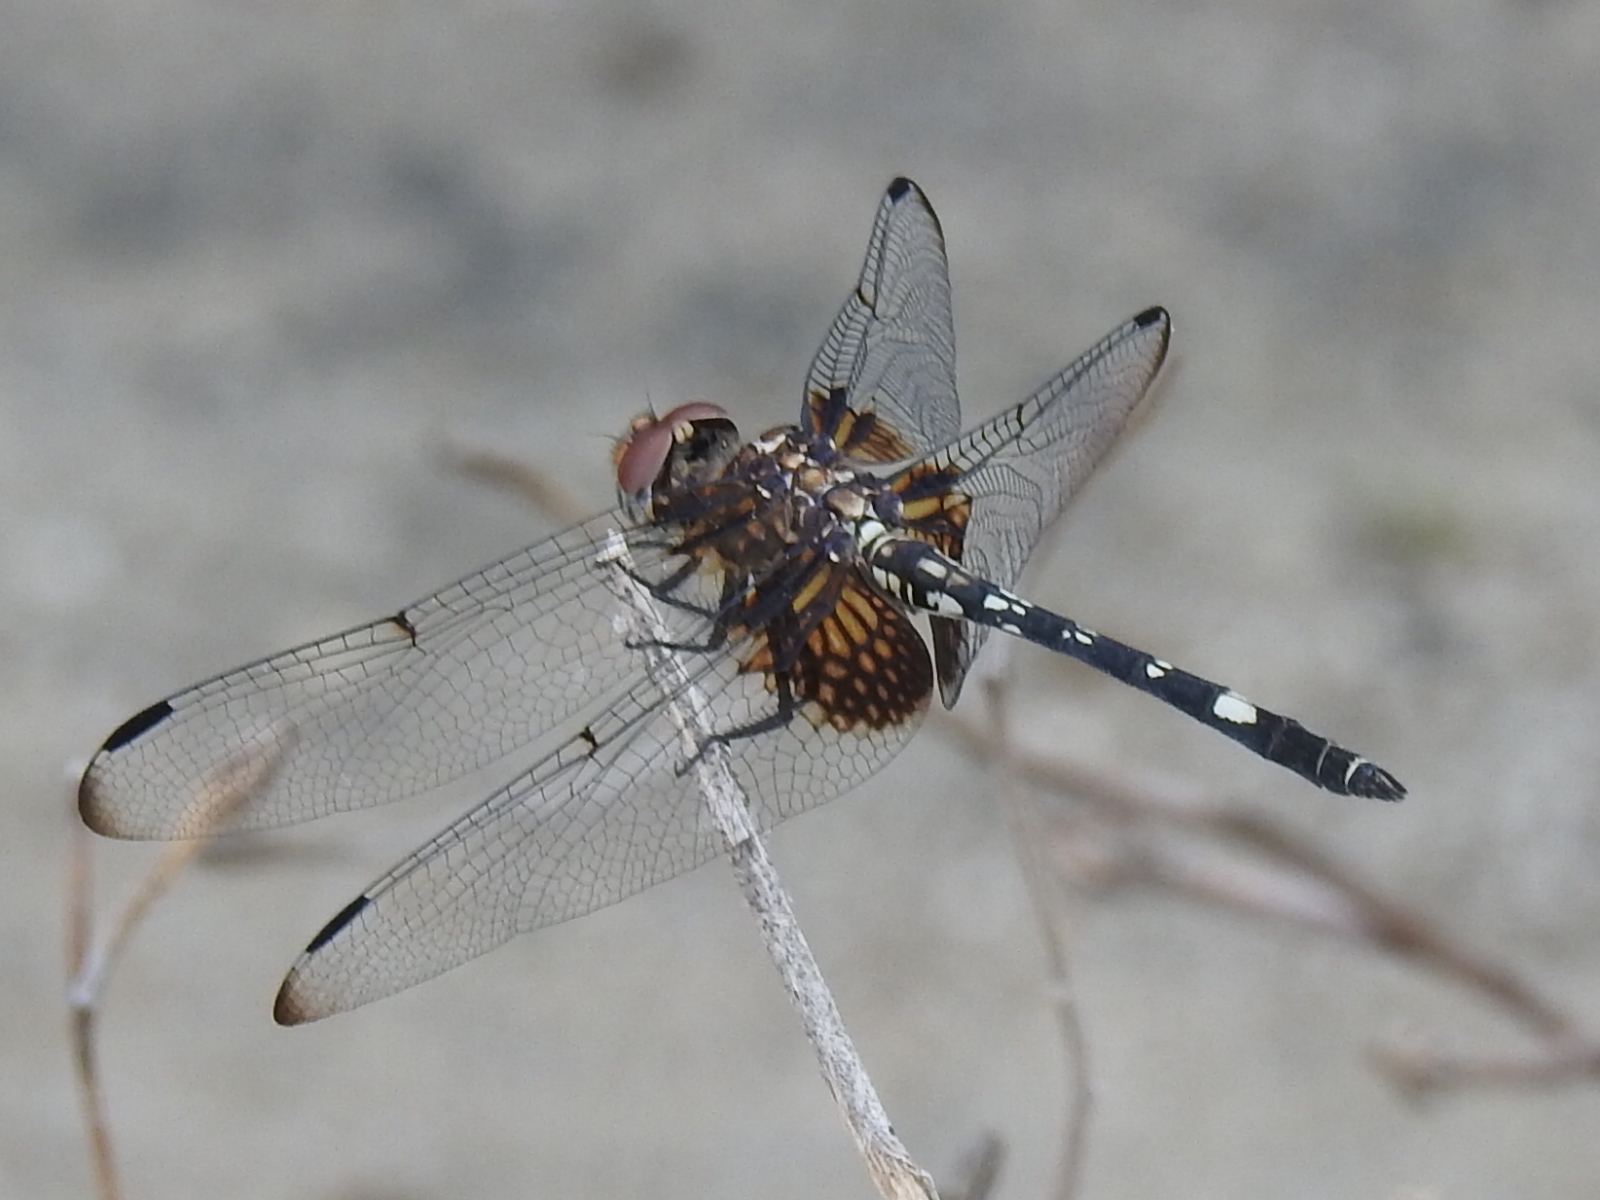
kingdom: Animalia
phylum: Arthropoda
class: Insecta
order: Odonata
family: Libellulidae
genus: Dythemis
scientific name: Dythemis fugax
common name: Checkered setwing
